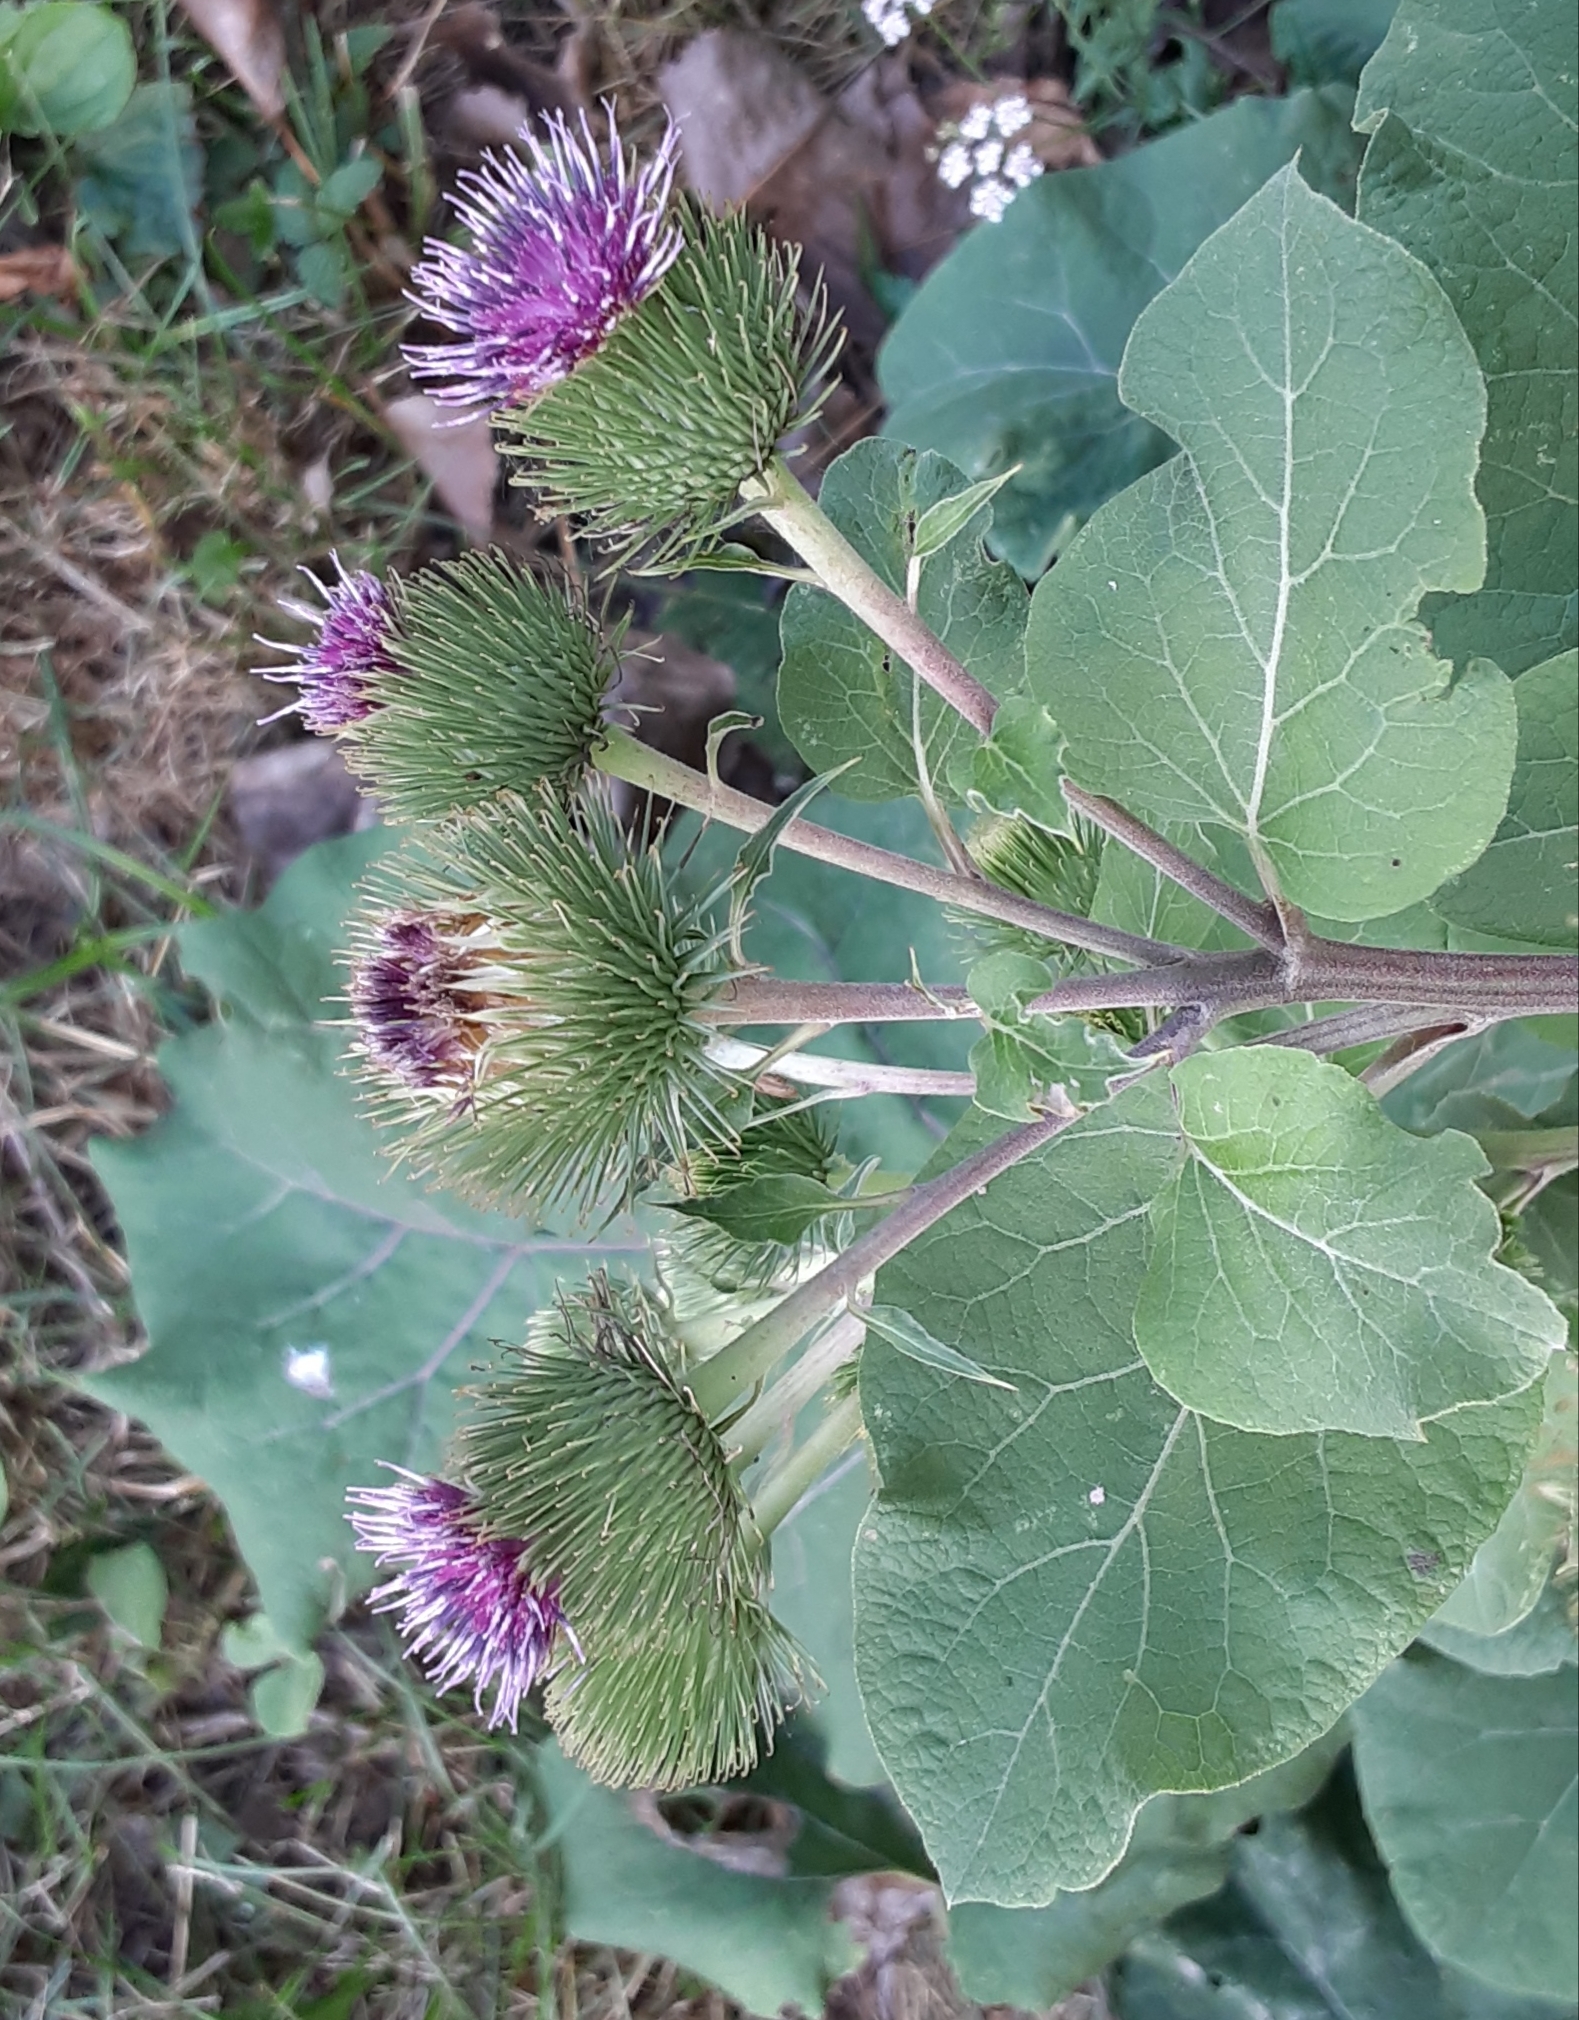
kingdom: Plantae
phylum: Tracheophyta
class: Magnoliopsida
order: Asterales
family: Asteraceae
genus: Arctium
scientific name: Arctium lappa
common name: Greater burdock
